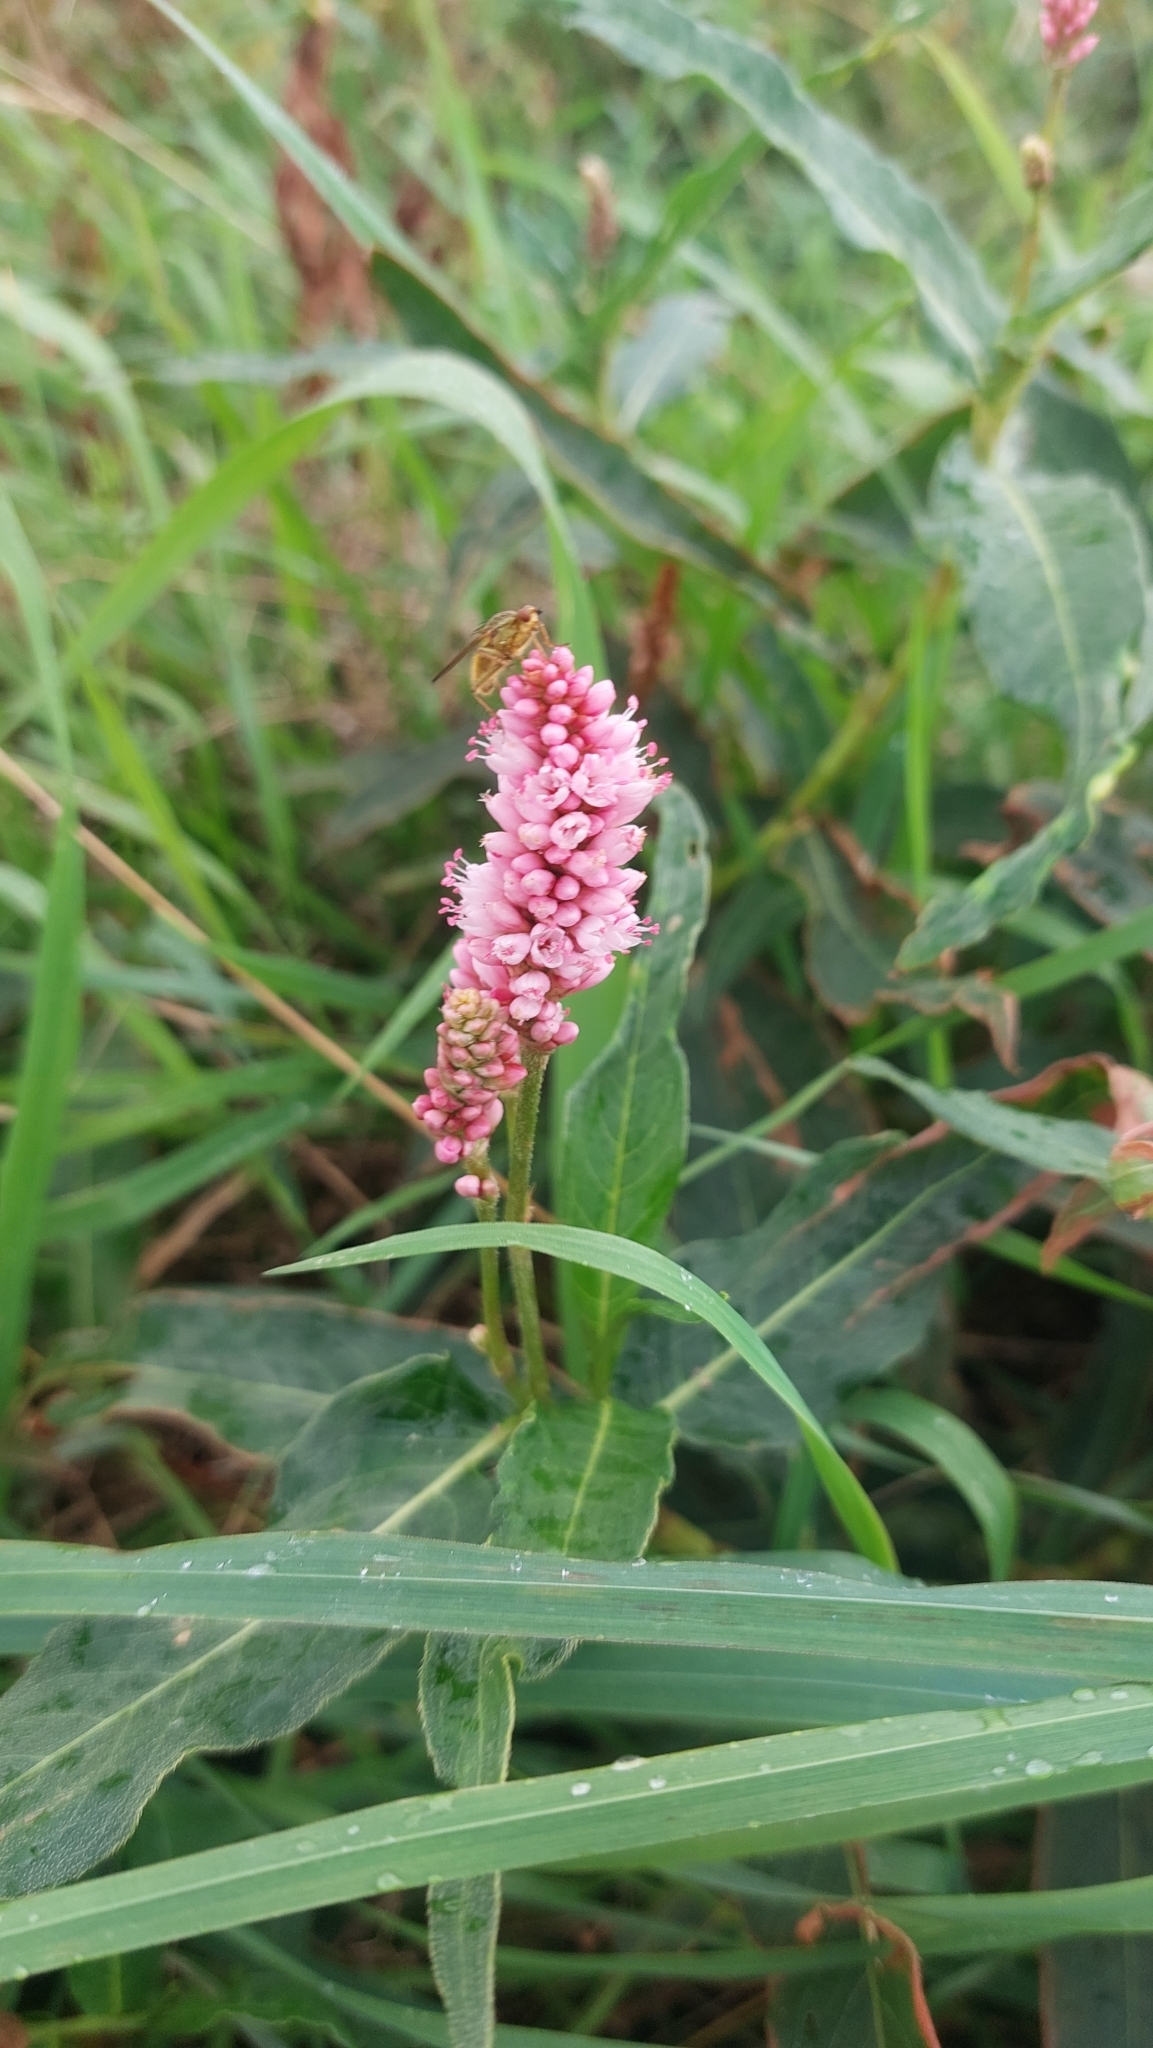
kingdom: Plantae
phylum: Tracheophyta
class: Magnoliopsida
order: Caryophyllales
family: Polygonaceae
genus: Persicaria
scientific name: Persicaria amphibia
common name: Amphibious bistort
